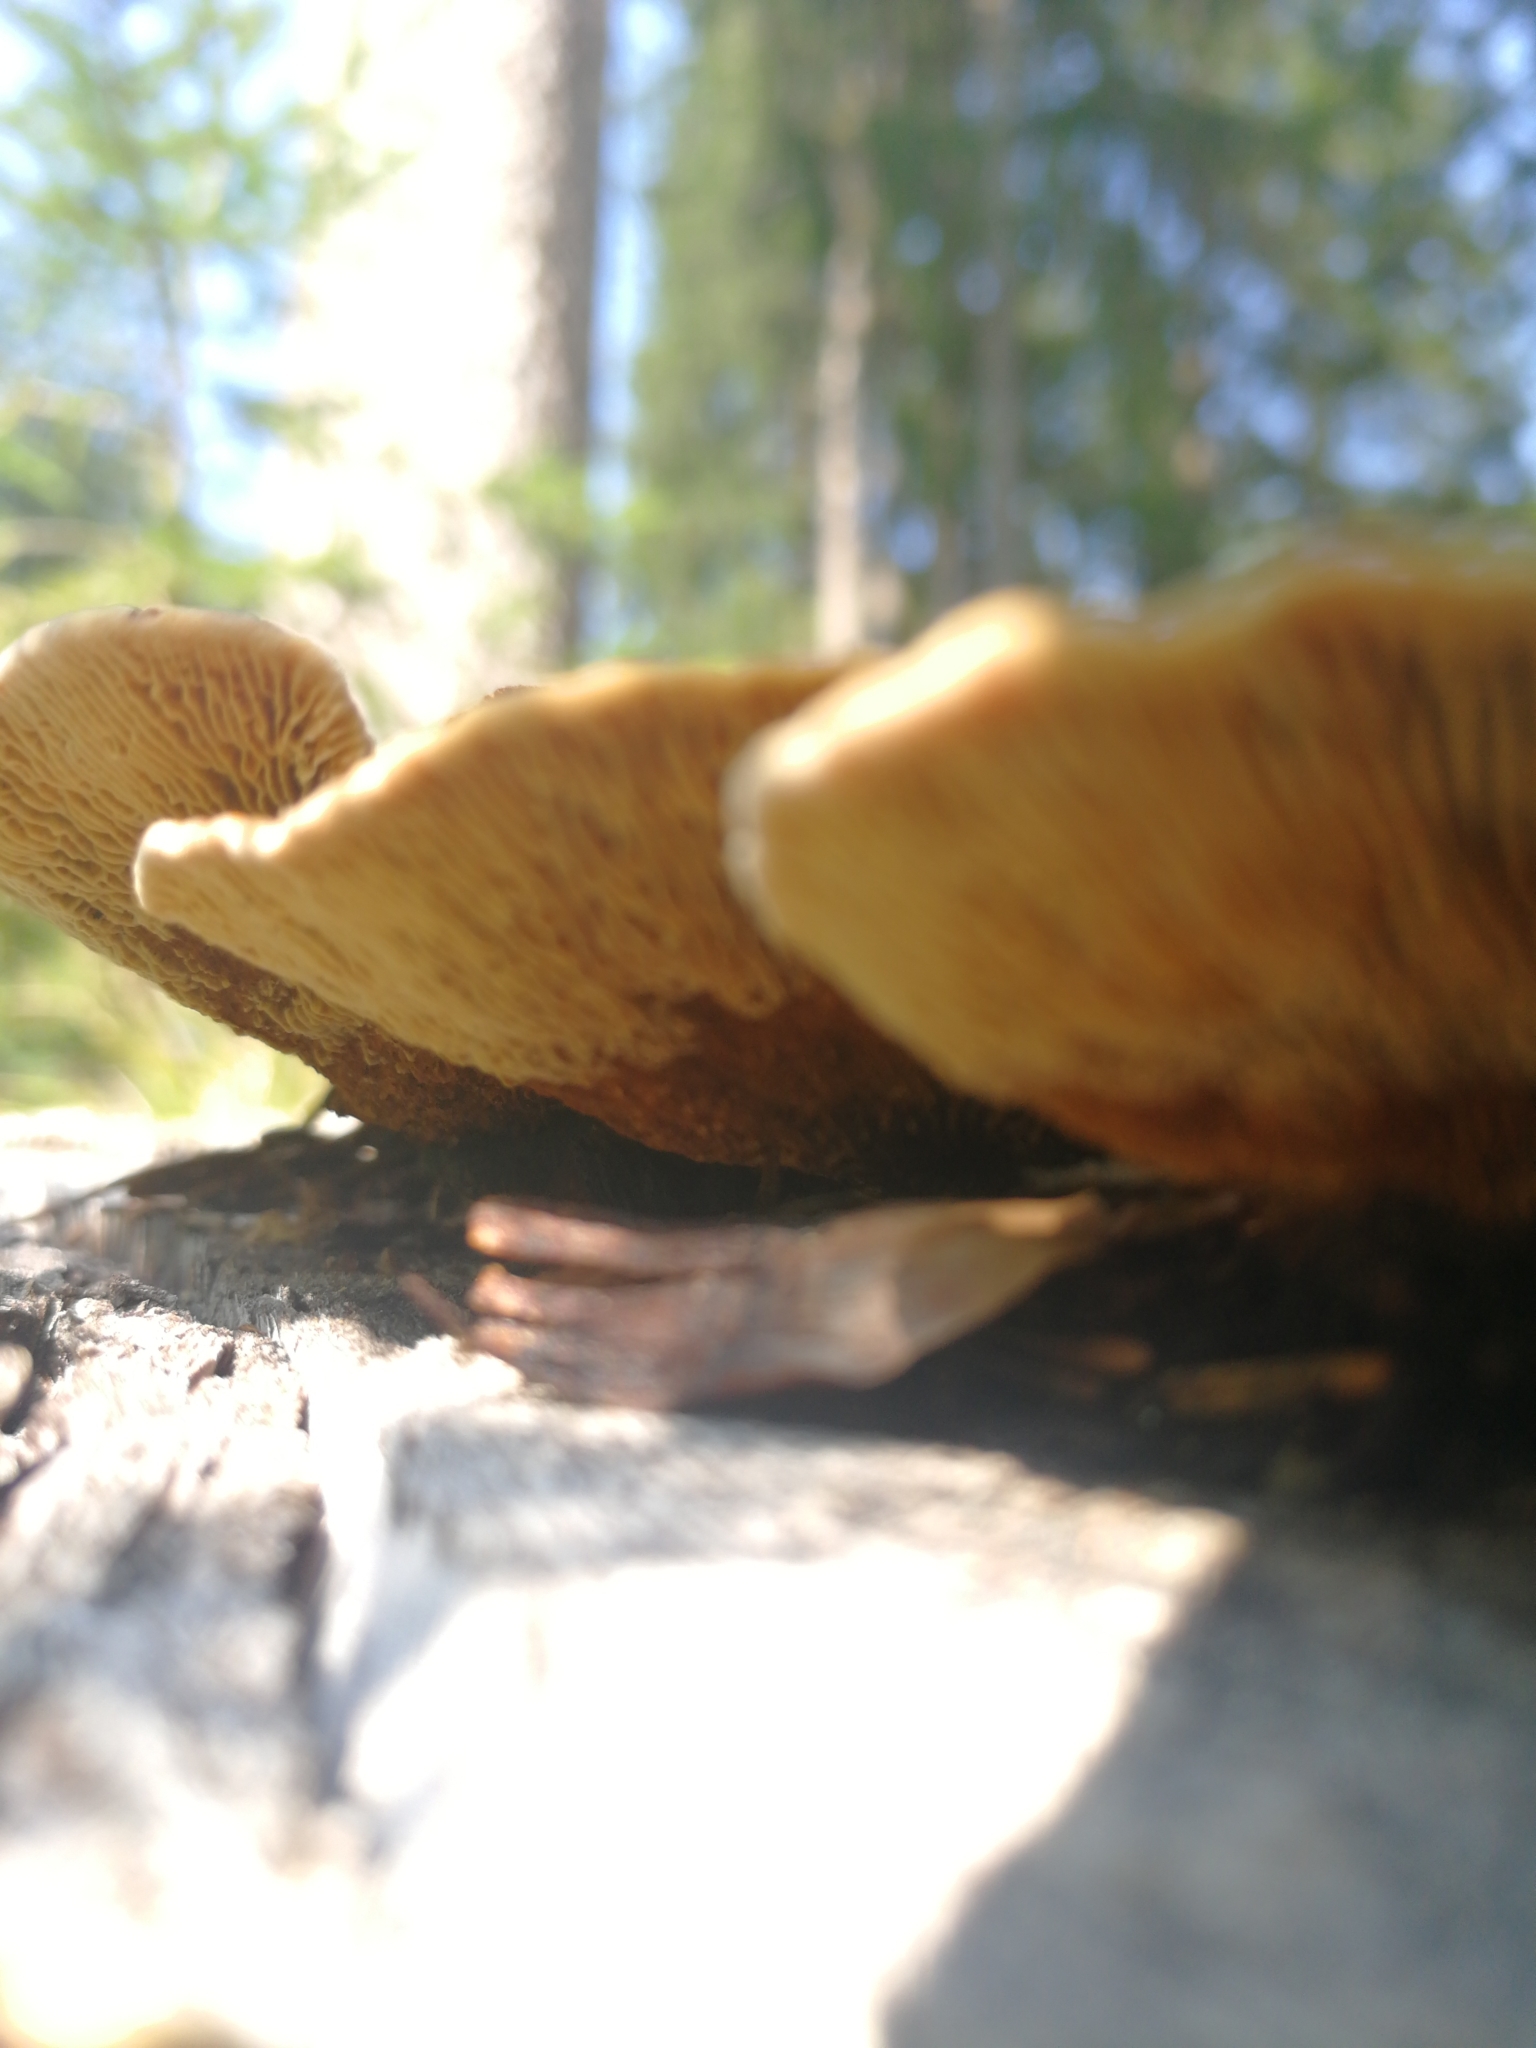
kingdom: Fungi
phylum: Basidiomycota
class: Agaricomycetes
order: Gloeophyllales
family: Gloeophyllaceae
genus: Gloeophyllum
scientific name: Gloeophyllum sepiarium
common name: Conifer mazegill
